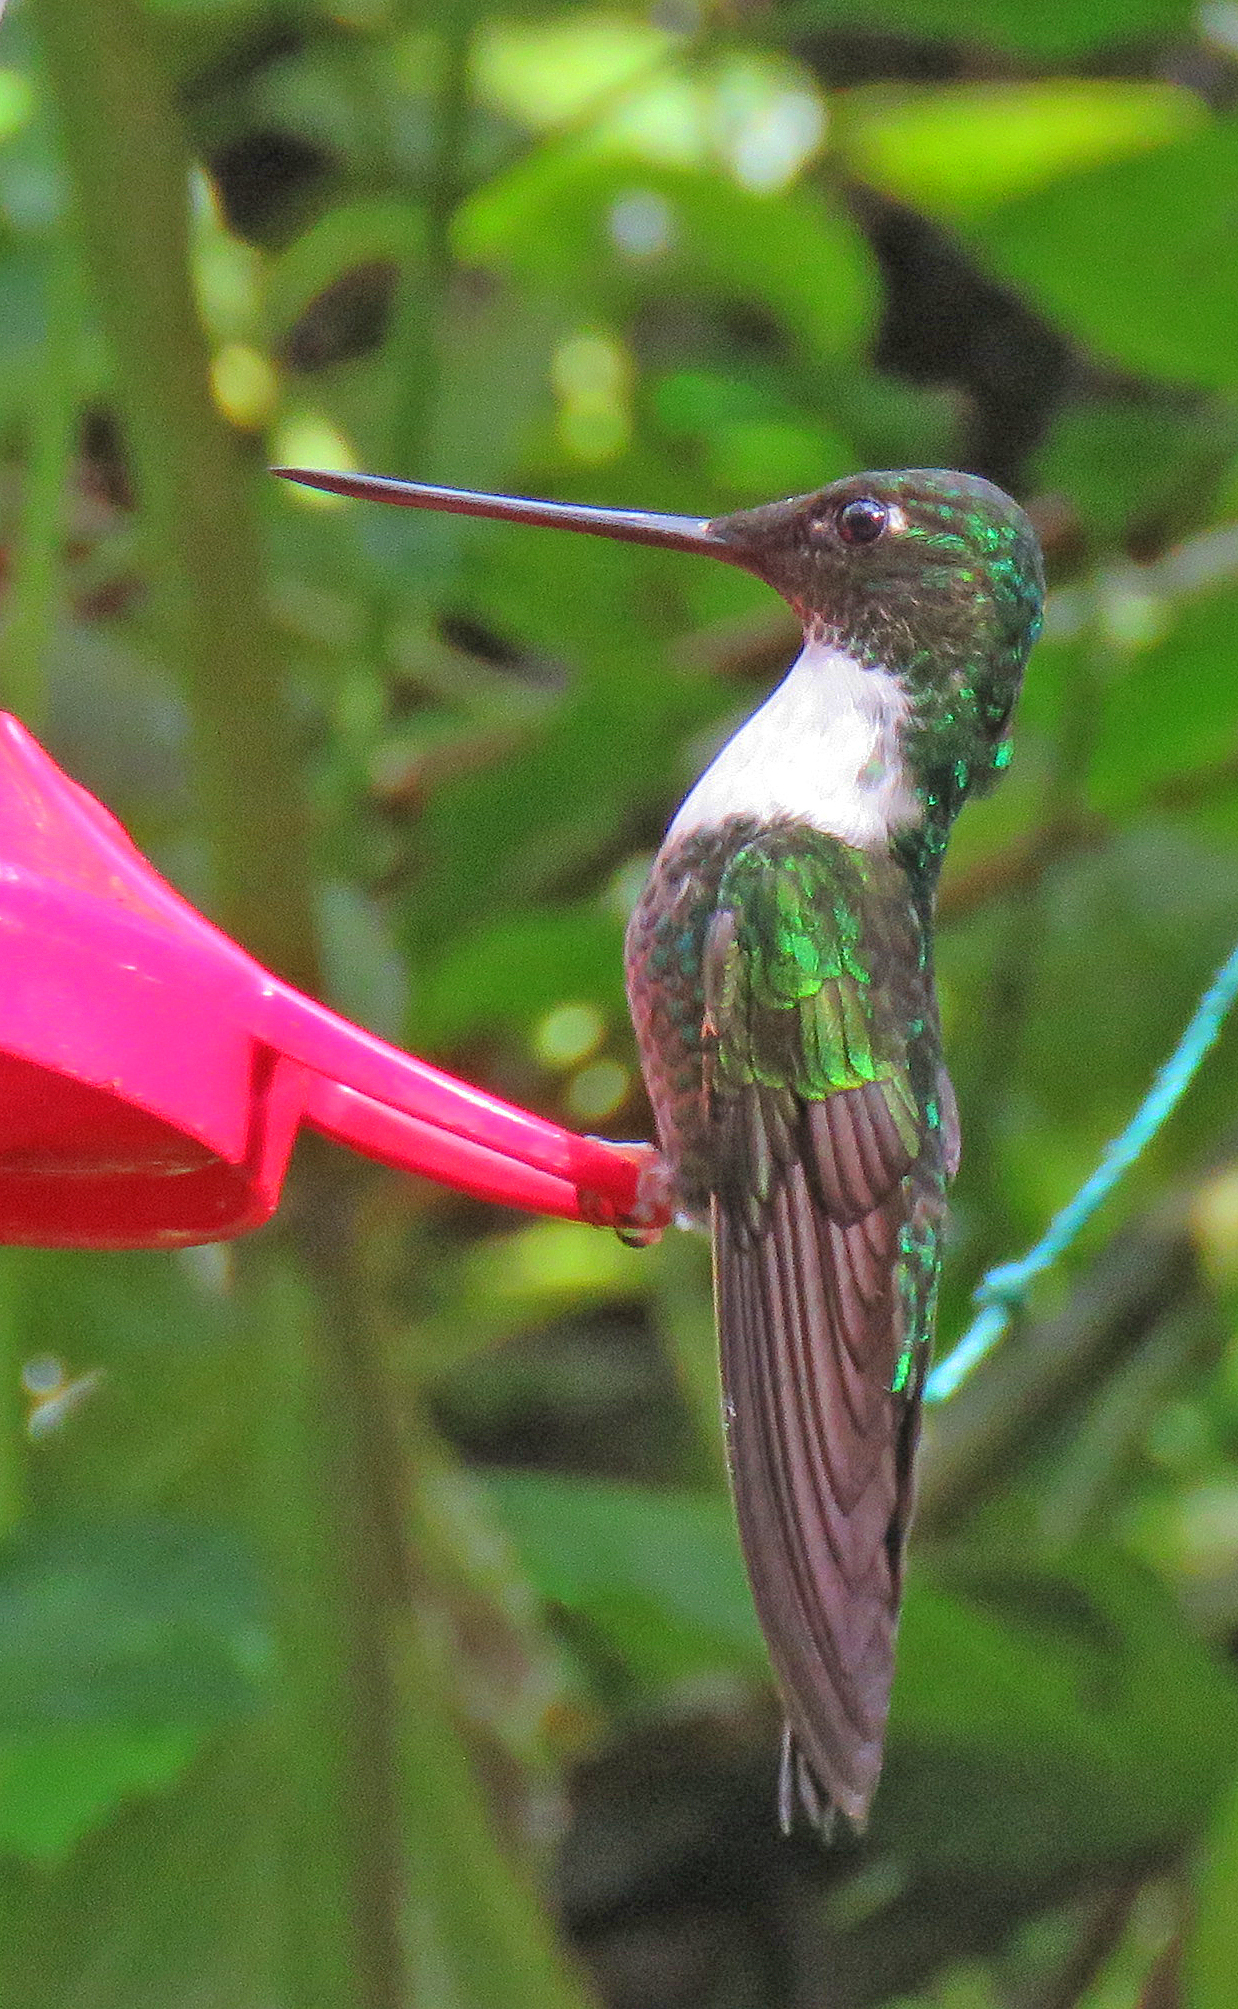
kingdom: Animalia
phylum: Chordata
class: Aves
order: Apodiformes
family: Trochilidae
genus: Coeligena
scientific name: Coeligena torquata
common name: Collared inca
